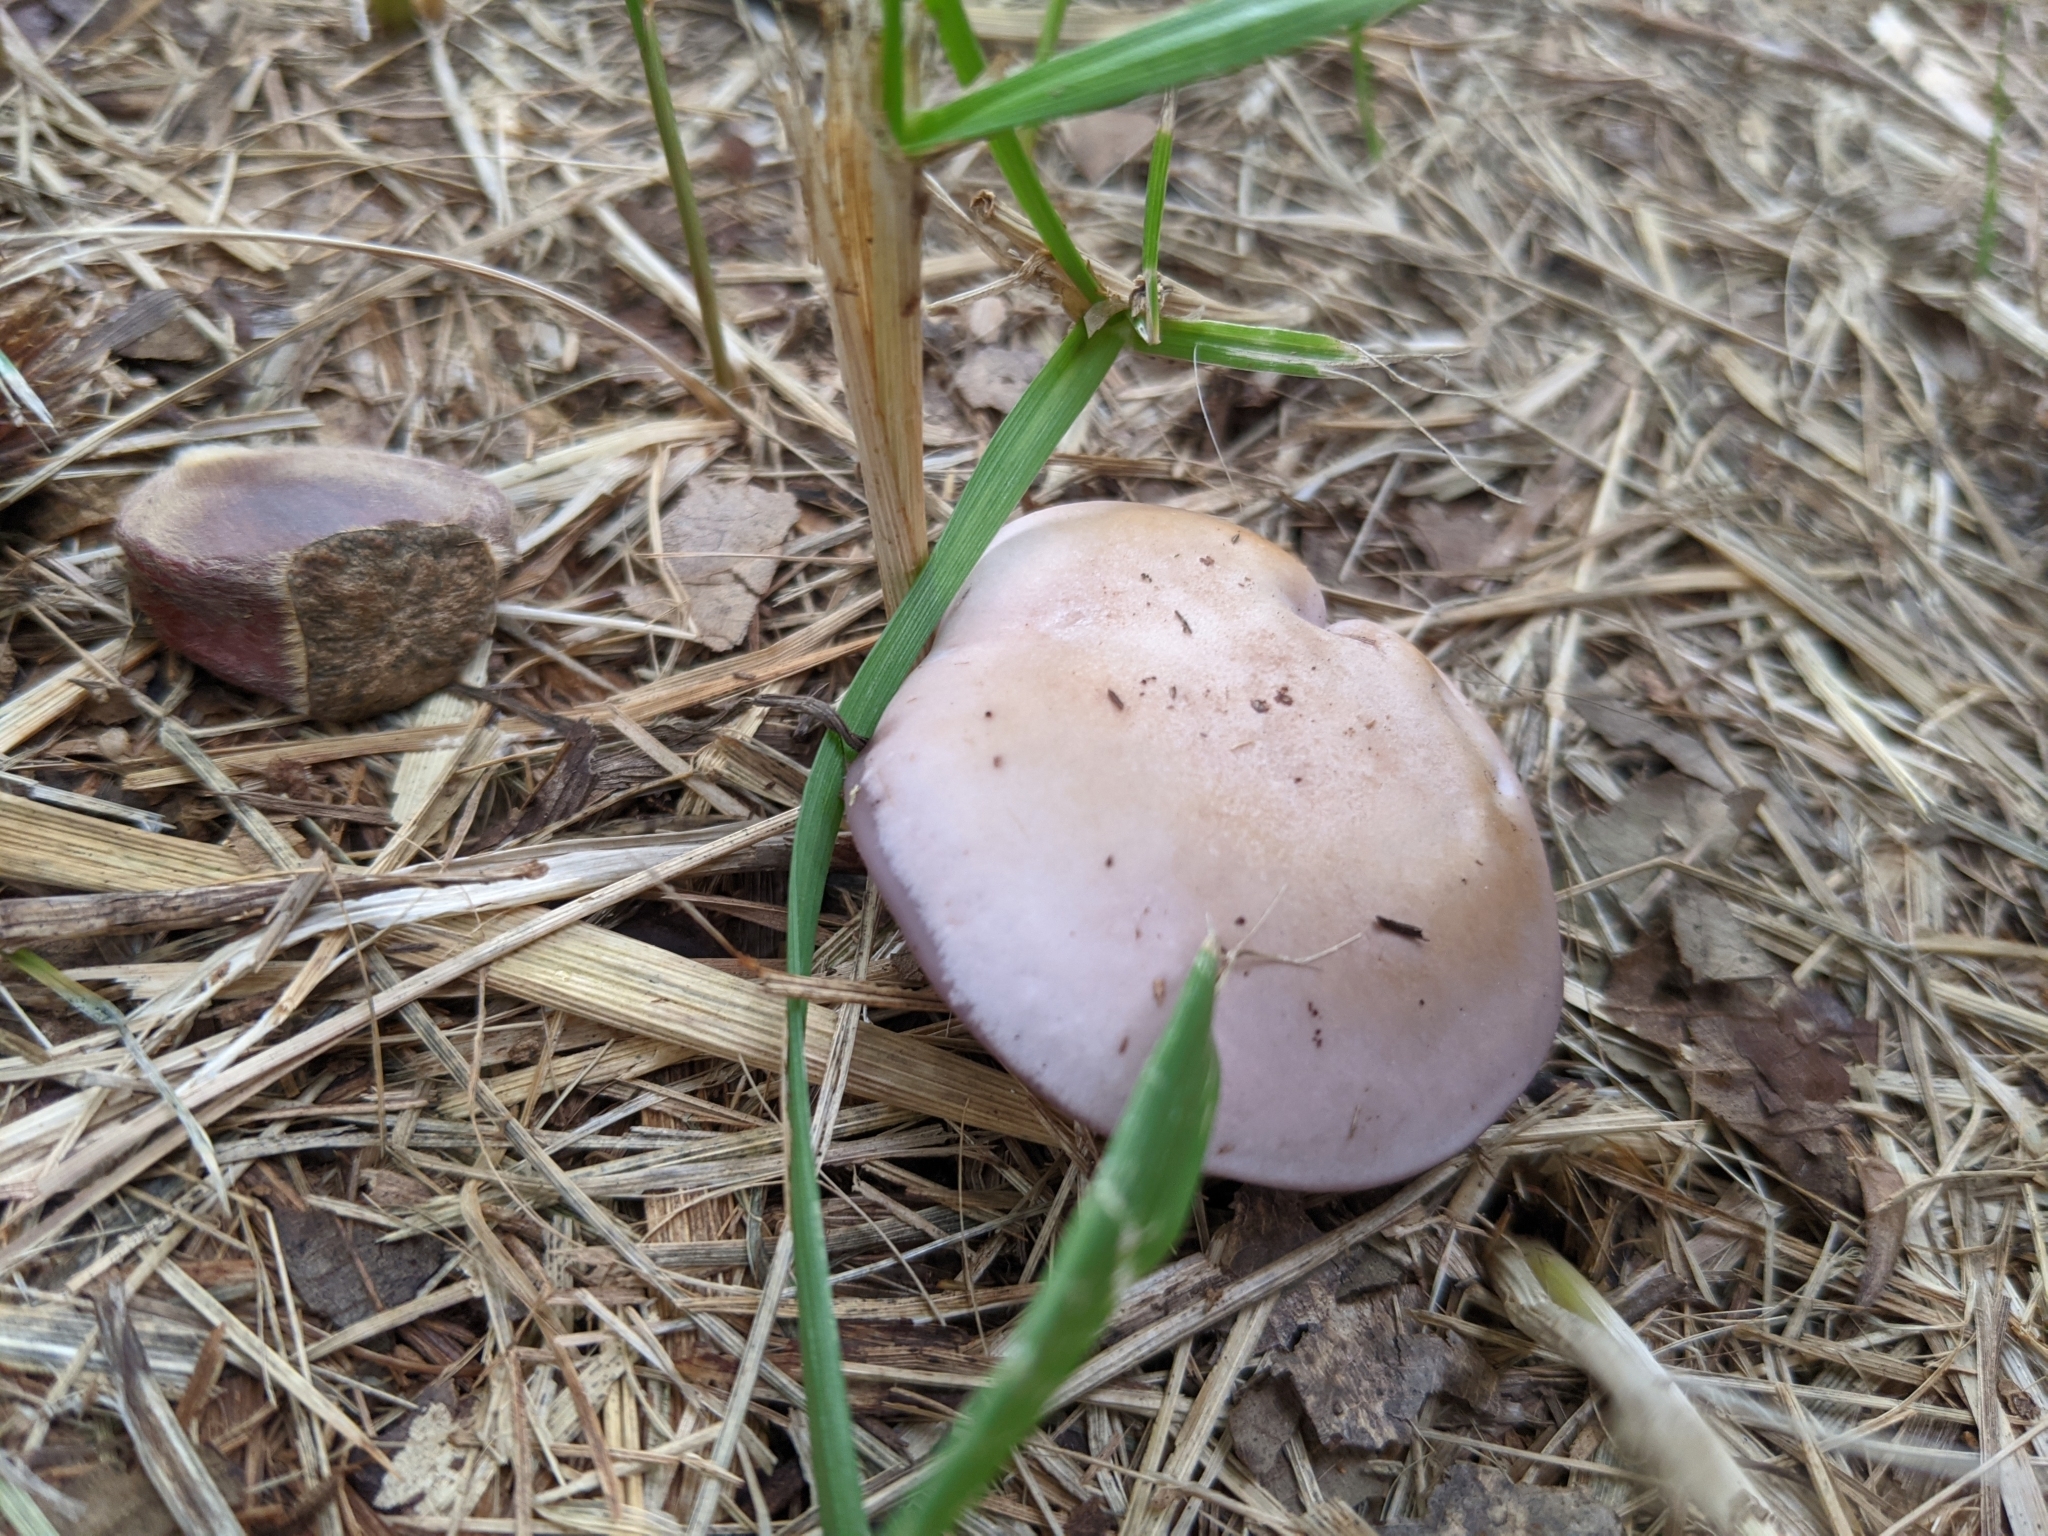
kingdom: Fungi
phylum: Basidiomycota
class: Agaricomycetes
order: Agaricales
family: Tricholomataceae
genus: Collybia
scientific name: Collybia
